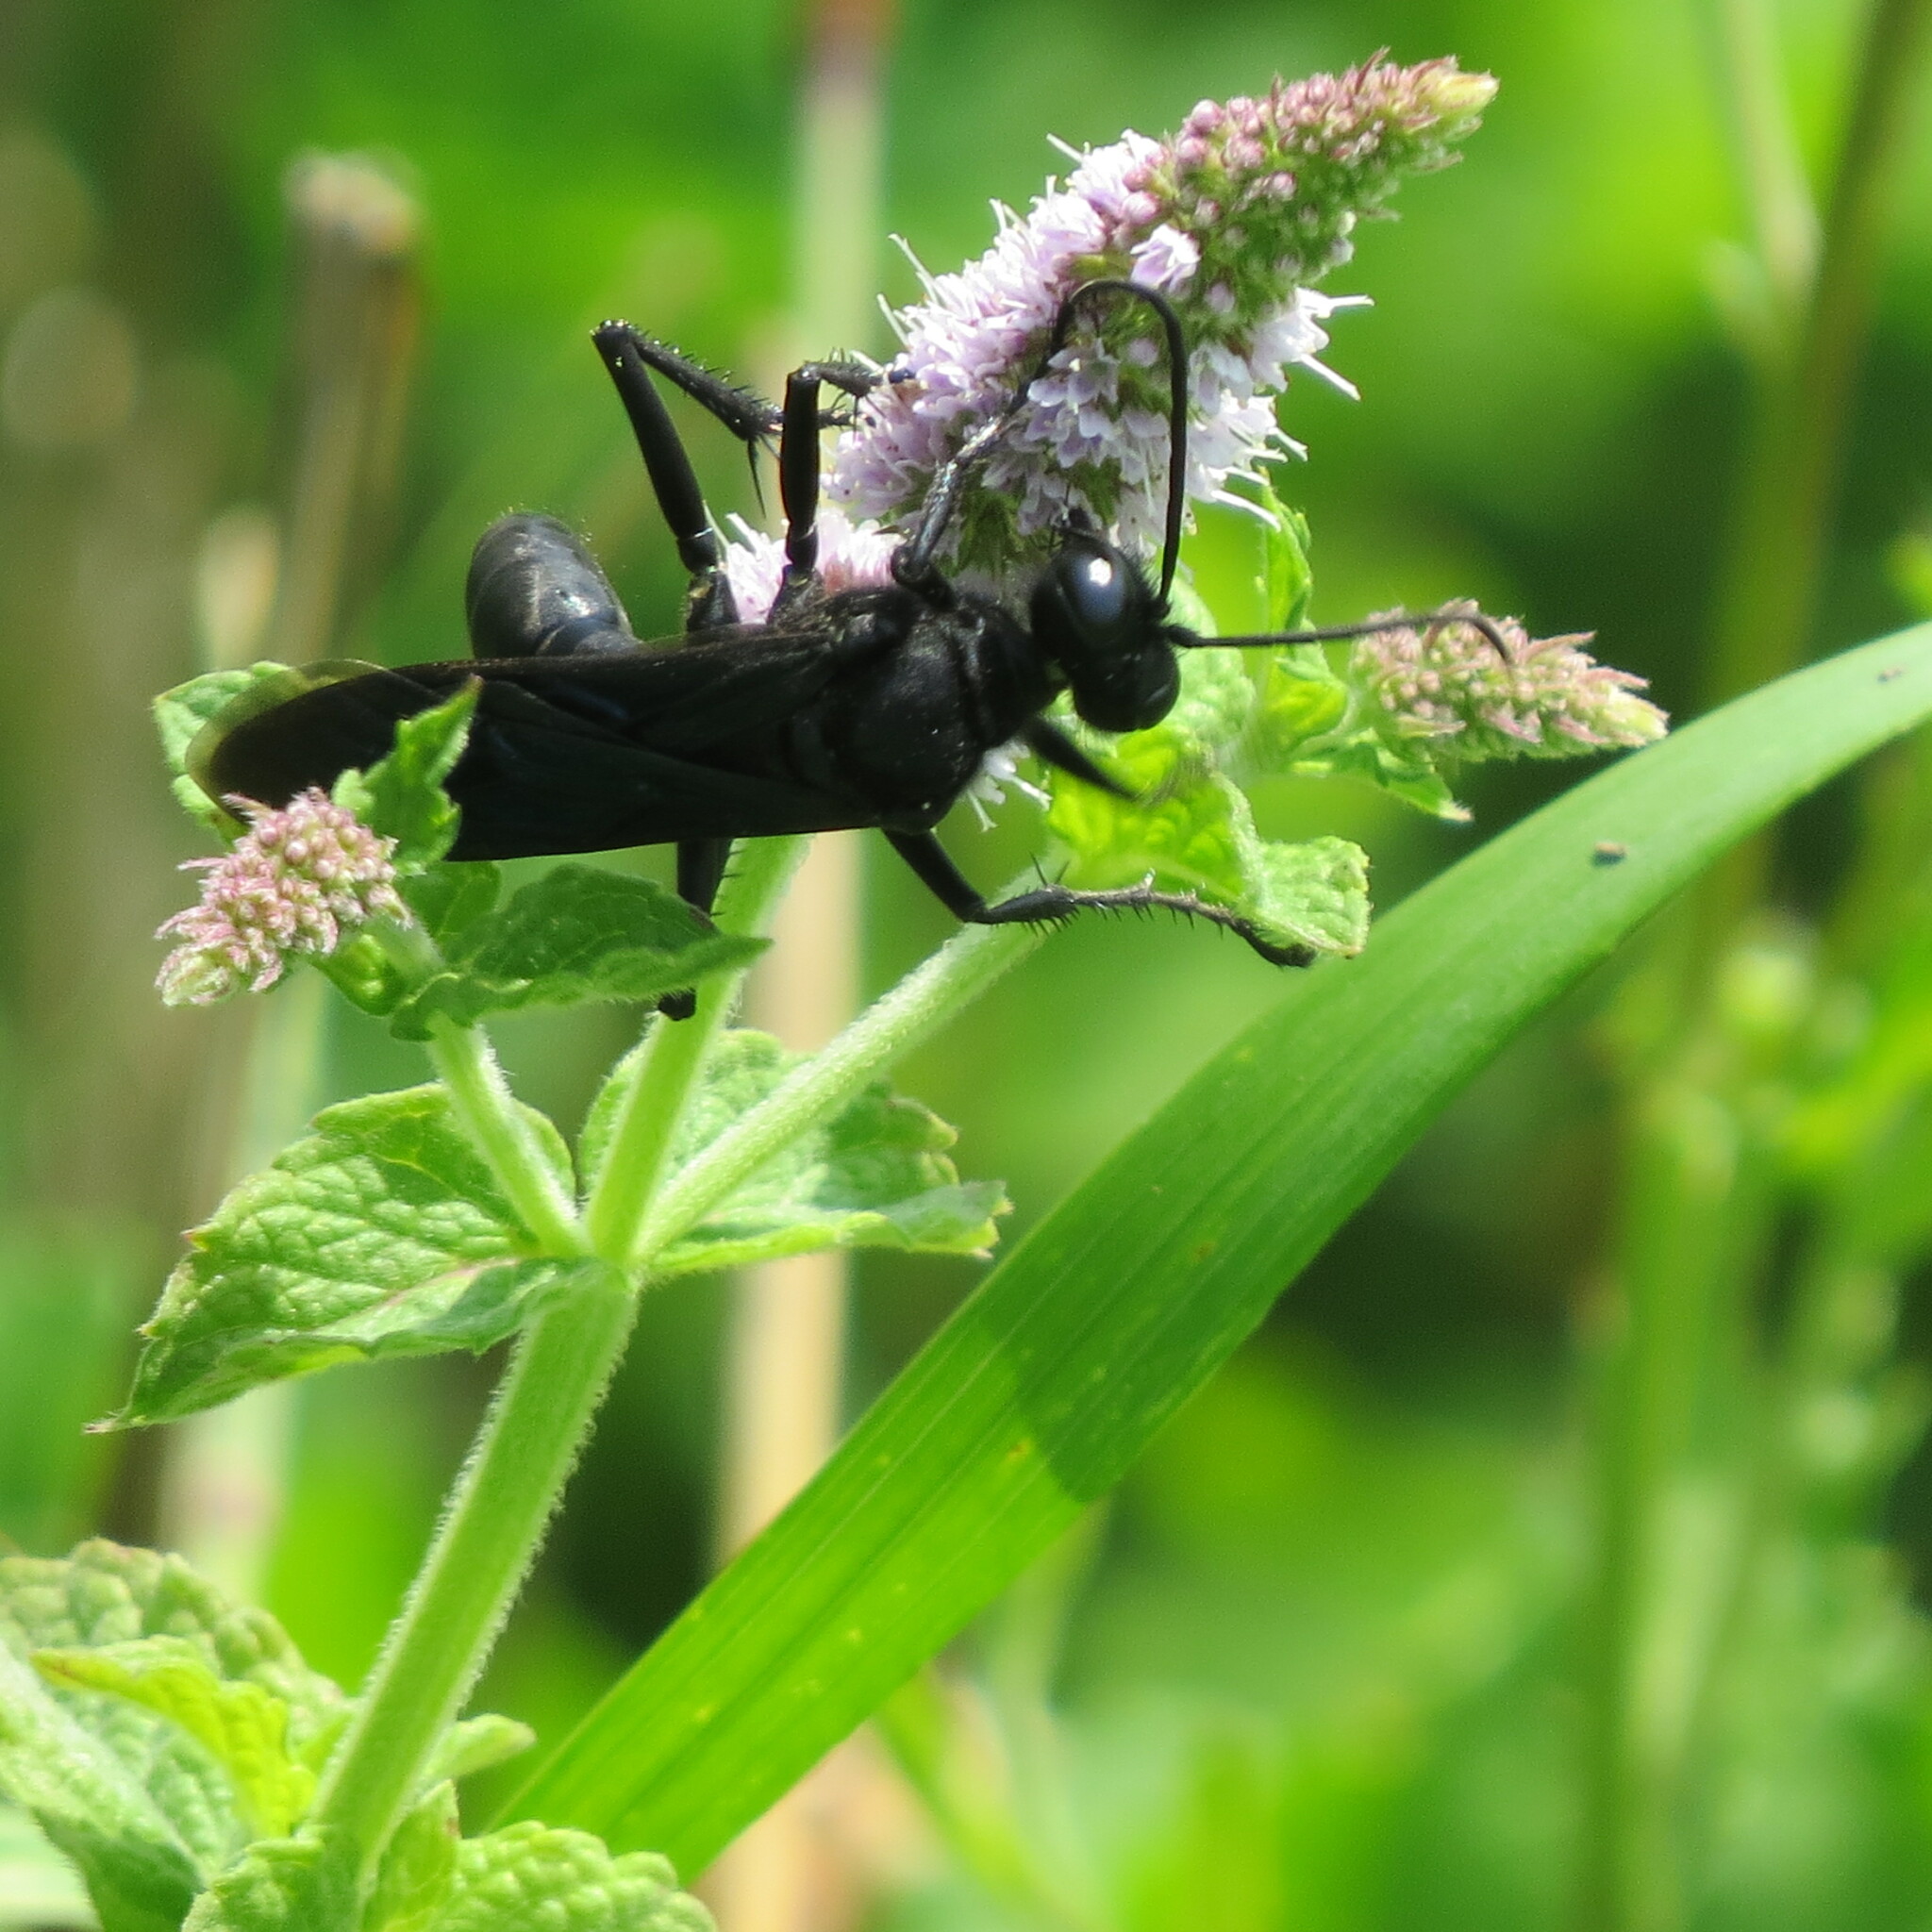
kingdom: Animalia
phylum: Arthropoda
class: Insecta
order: Hymenoptera
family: Sphecidae
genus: Sphex
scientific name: Sphex pensylvanicus
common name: Great black digger wasp
